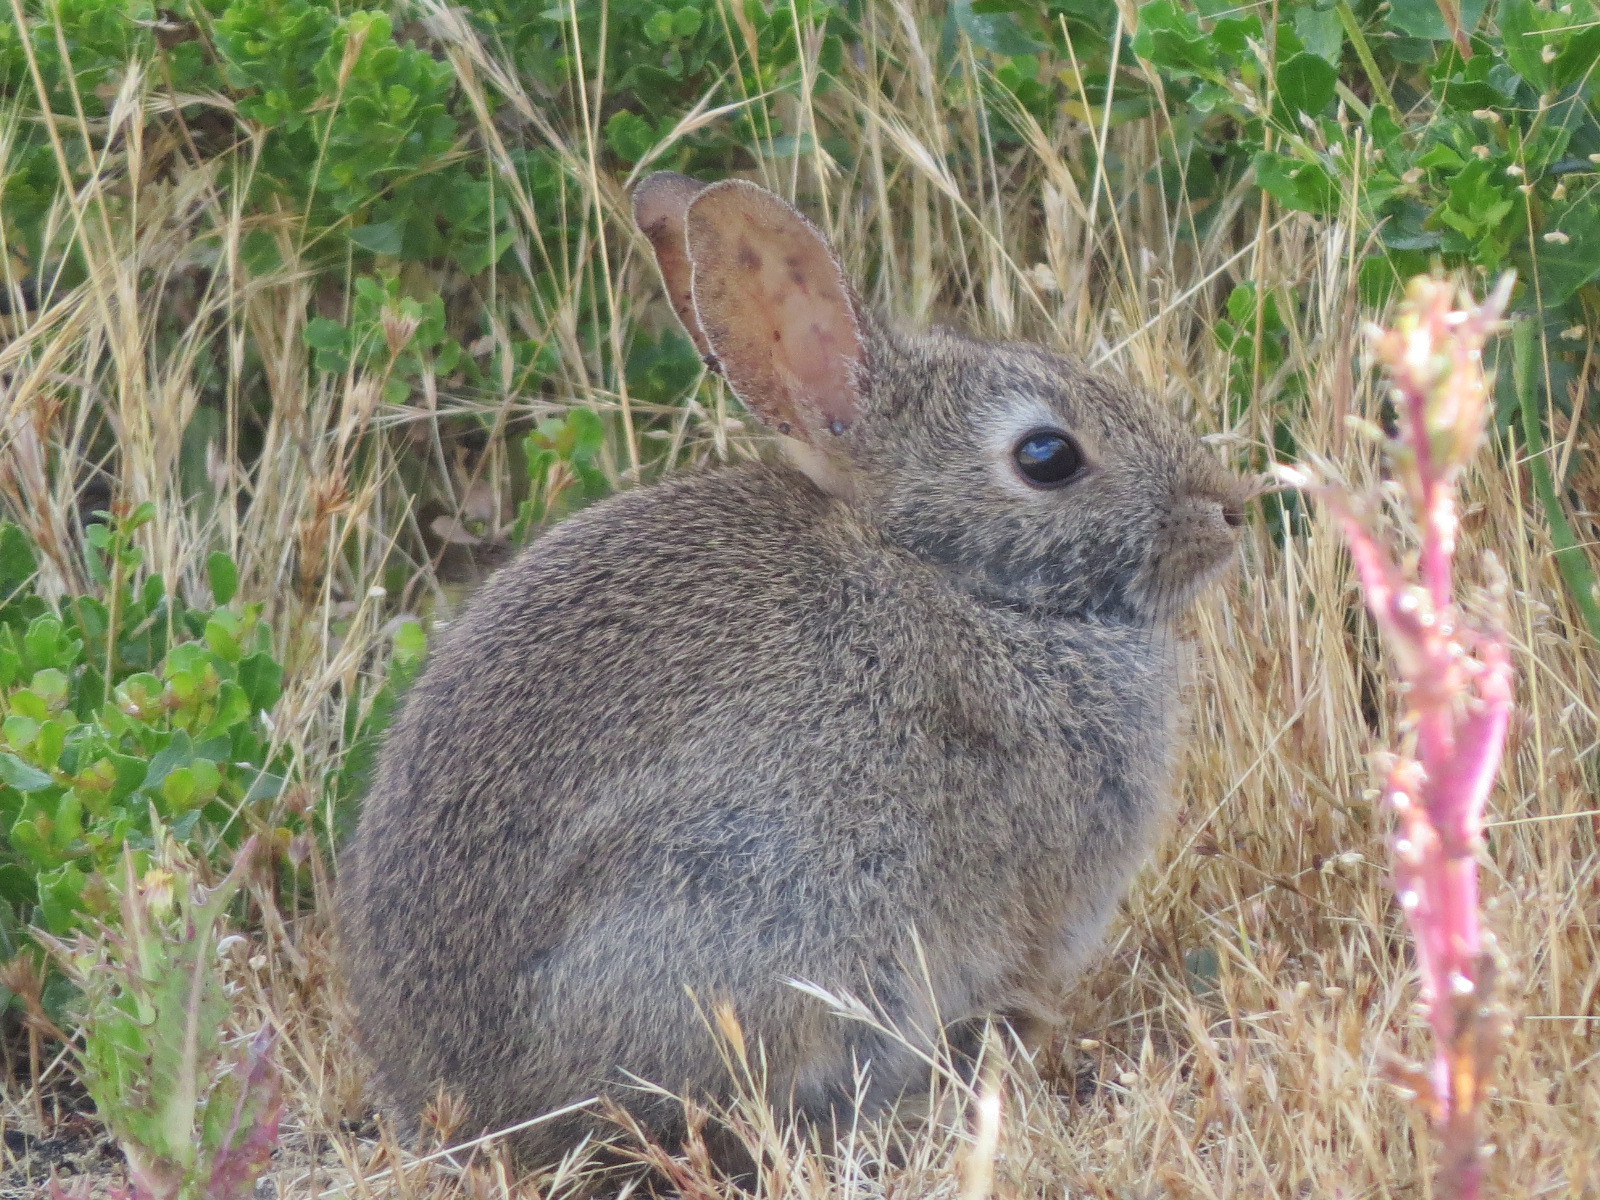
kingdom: Animalia
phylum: Chordata
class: Mammalia
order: Lagomorpha
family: Leporidae
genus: Sylvilagus
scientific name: Sylvilagus bachmani
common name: Brush rabbit
